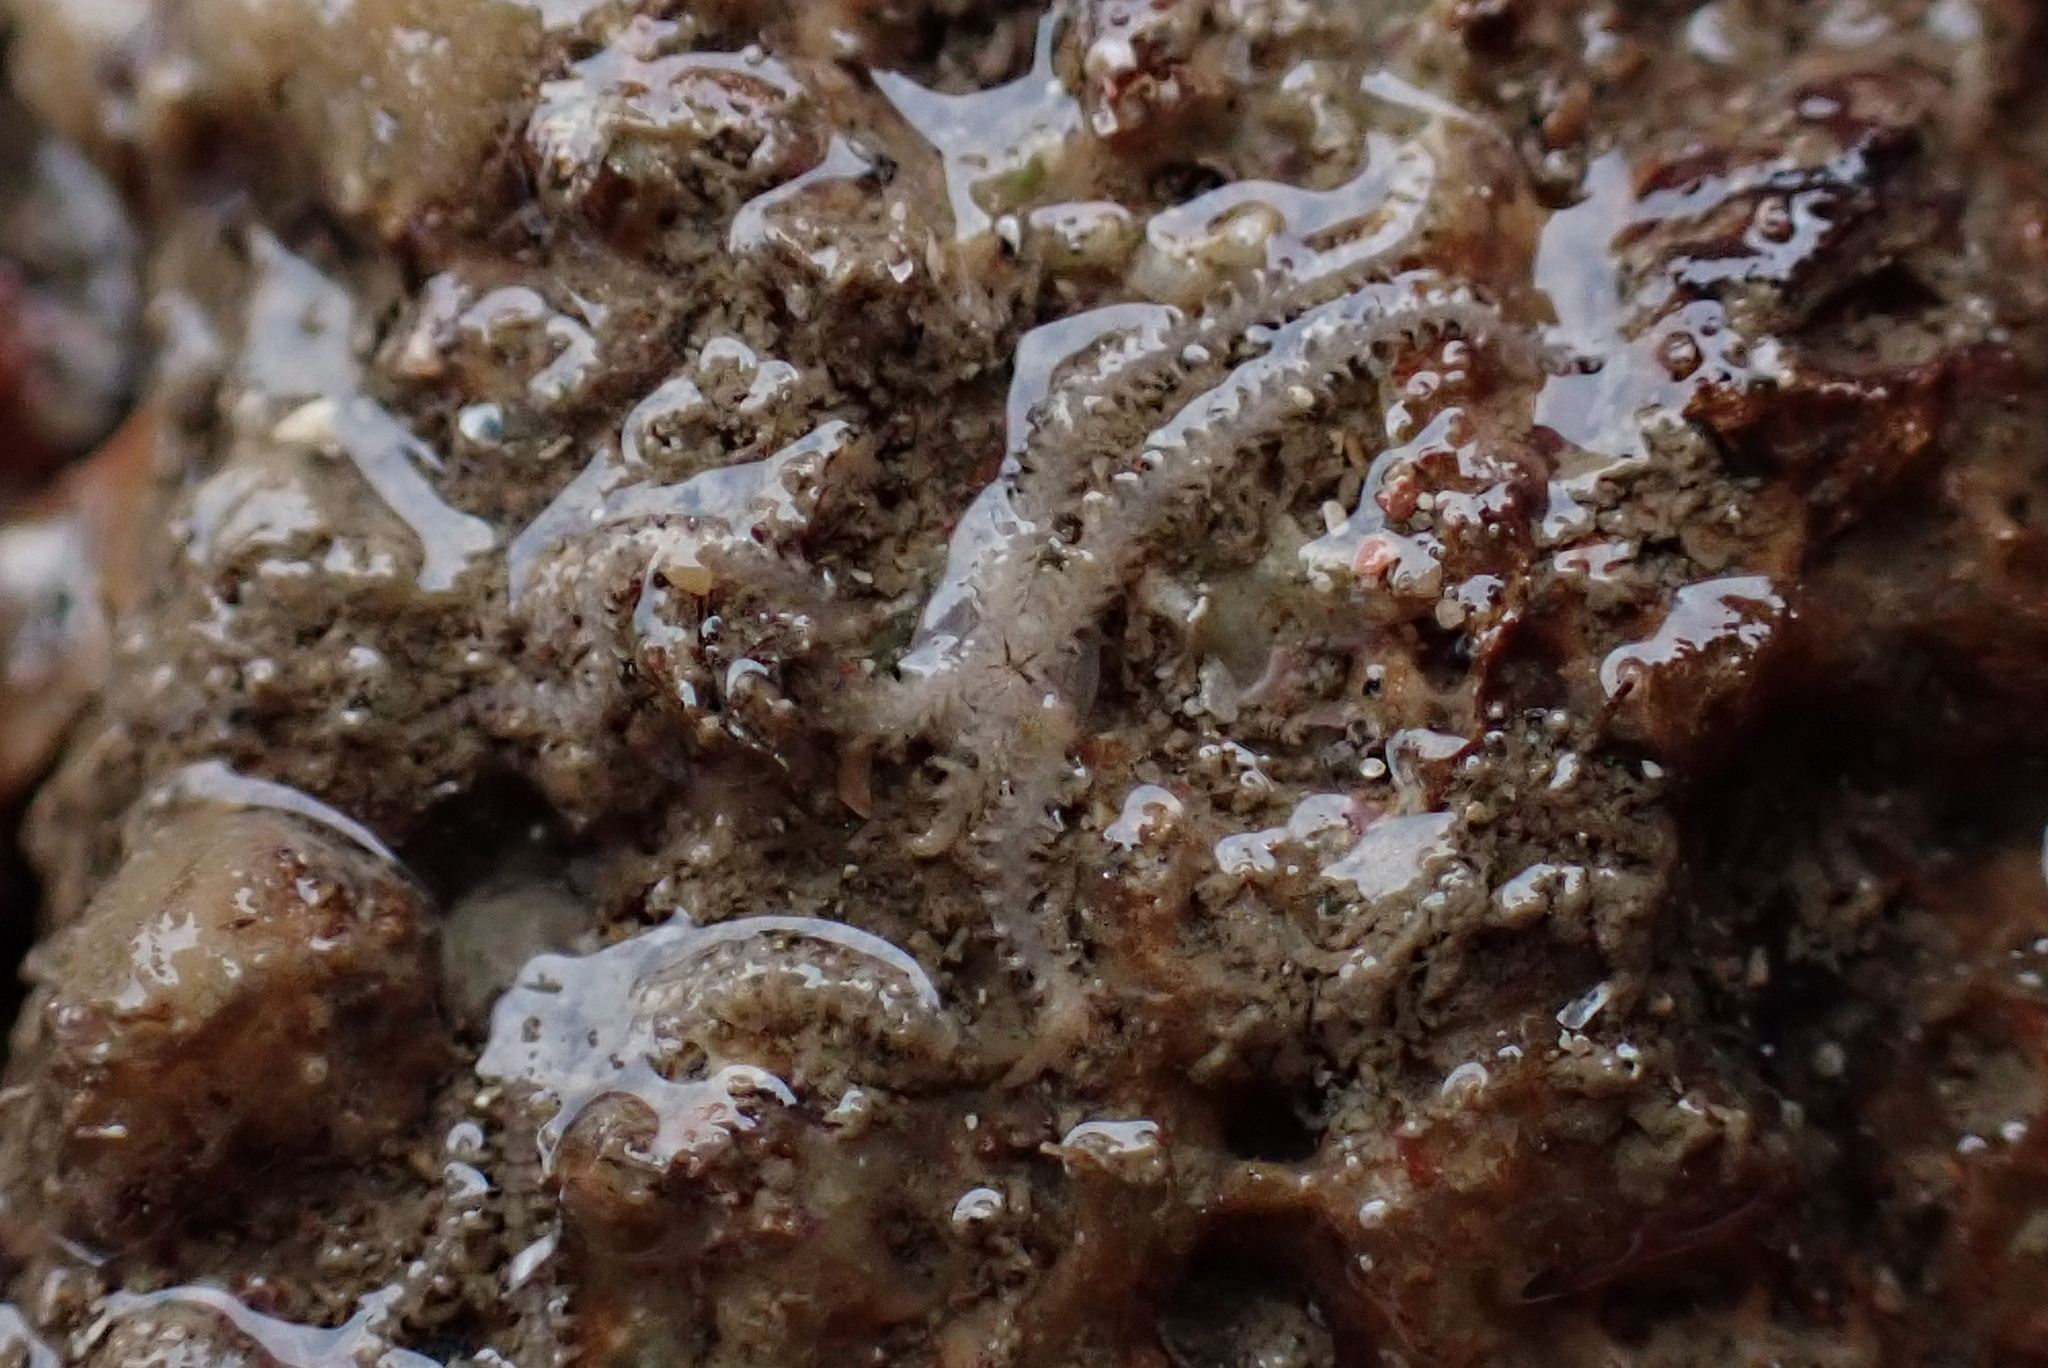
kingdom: Animalia
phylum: Echinodermata
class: Ophiuroidea
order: Amphilepidida
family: Amphiuridae
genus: Amphipholis
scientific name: Amphipholis squamata
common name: Brooding snake star
